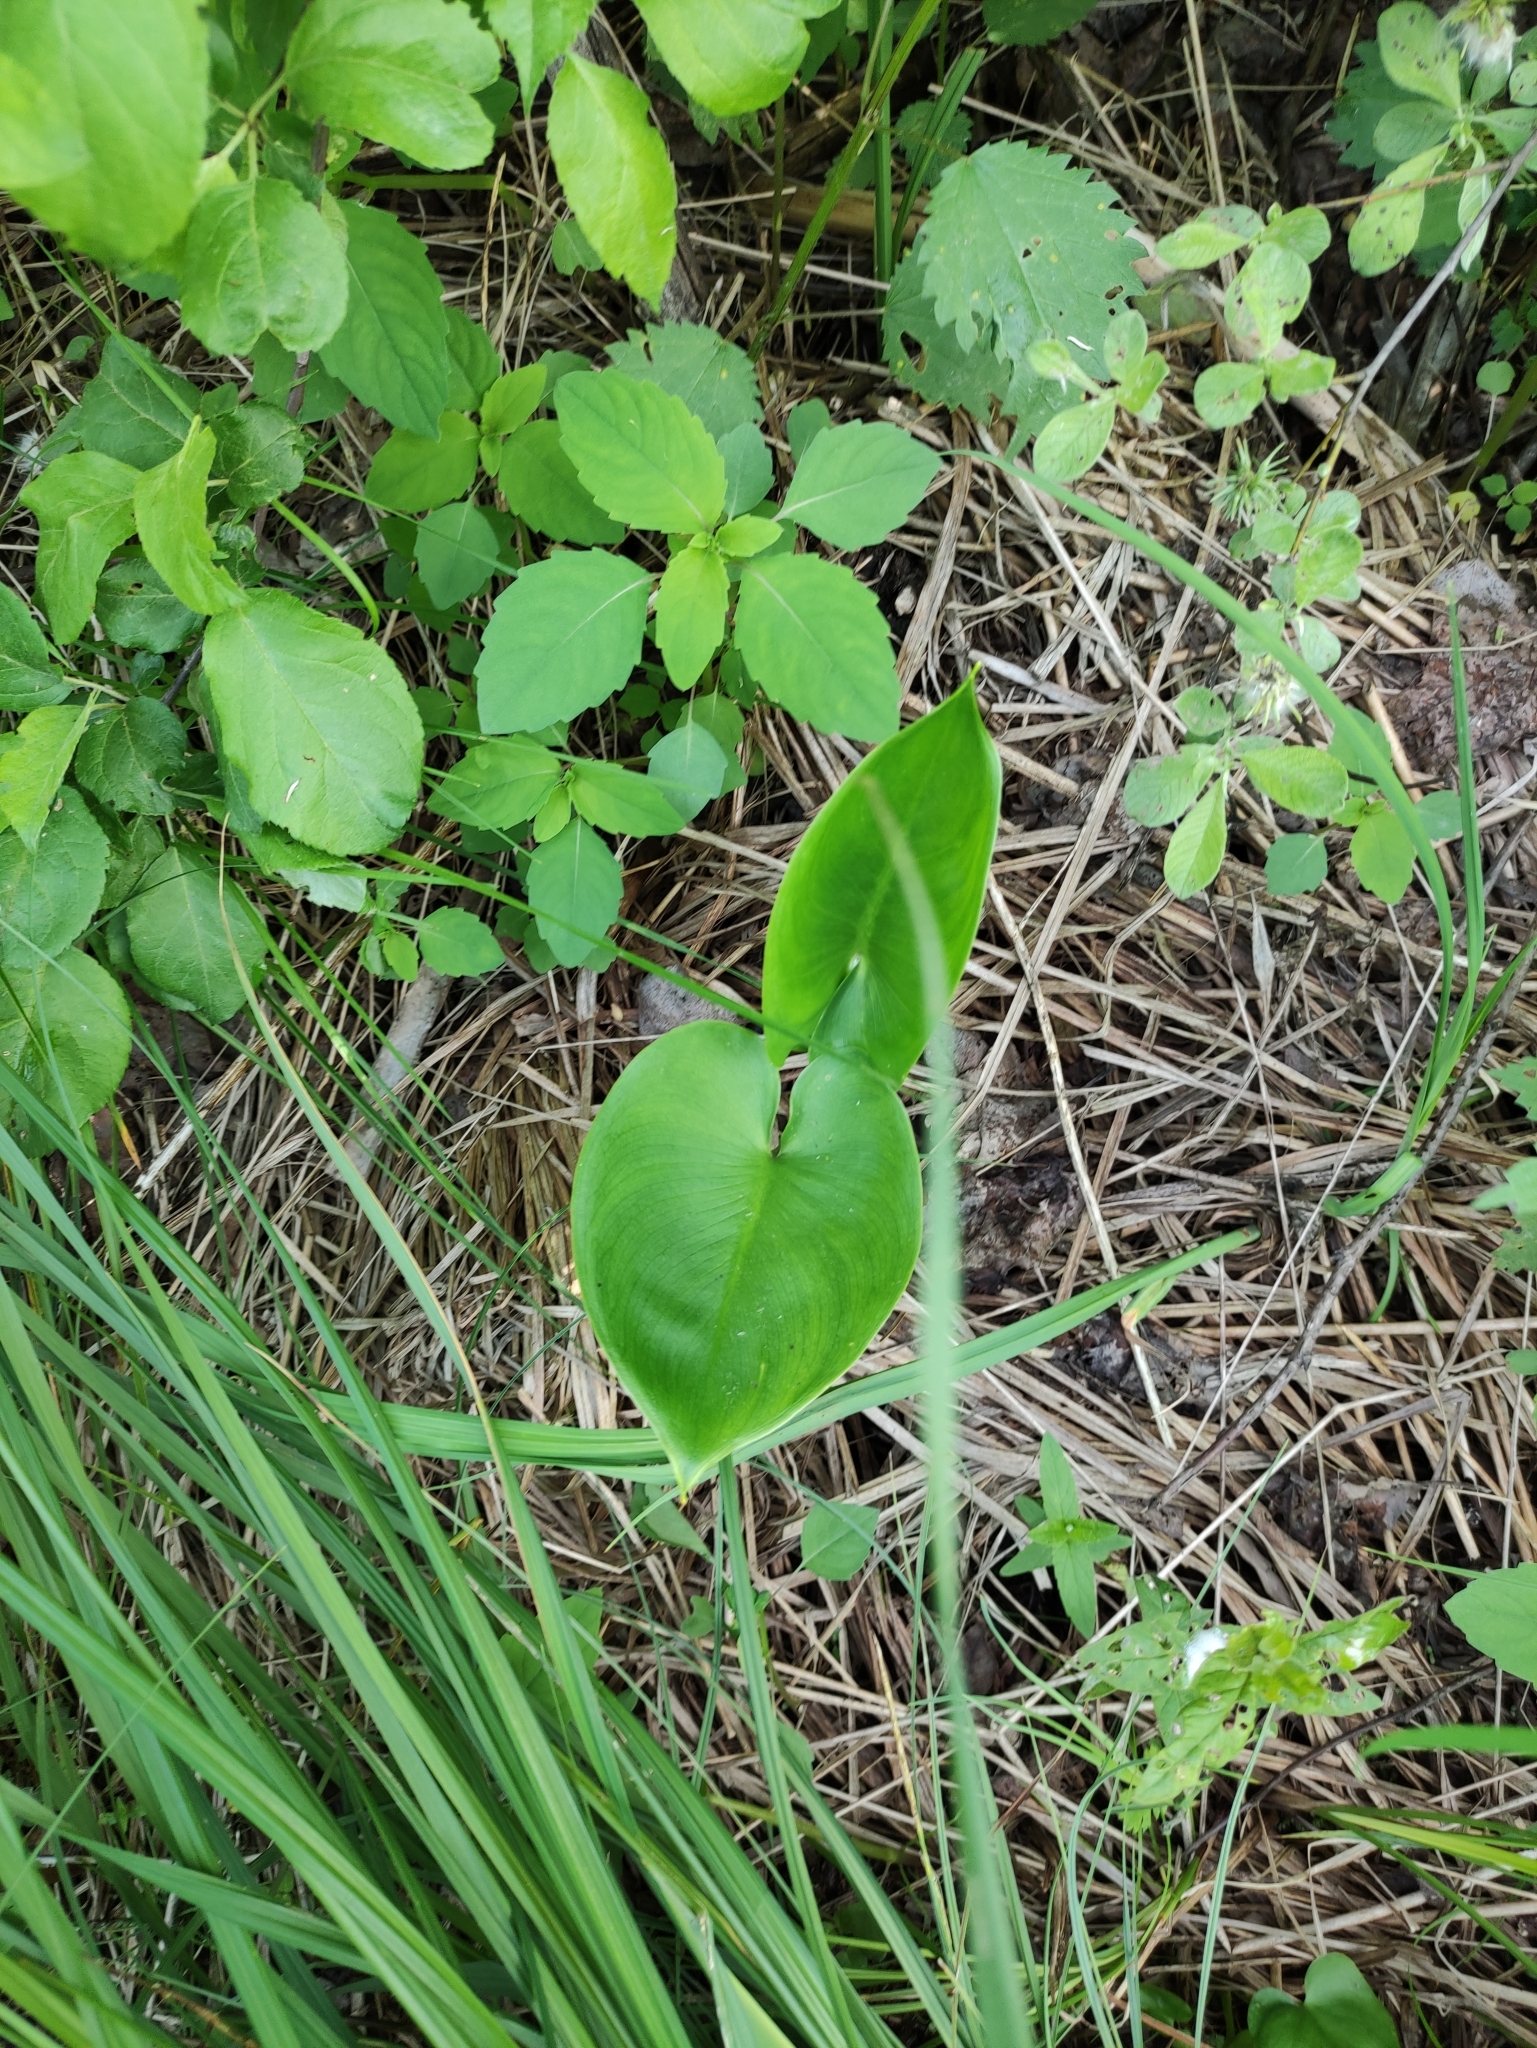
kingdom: Plantae
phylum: Tracheophyta
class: Liliopsida
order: Alismatales
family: Araceae
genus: Calla
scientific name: Calla palustris
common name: Bog arum
